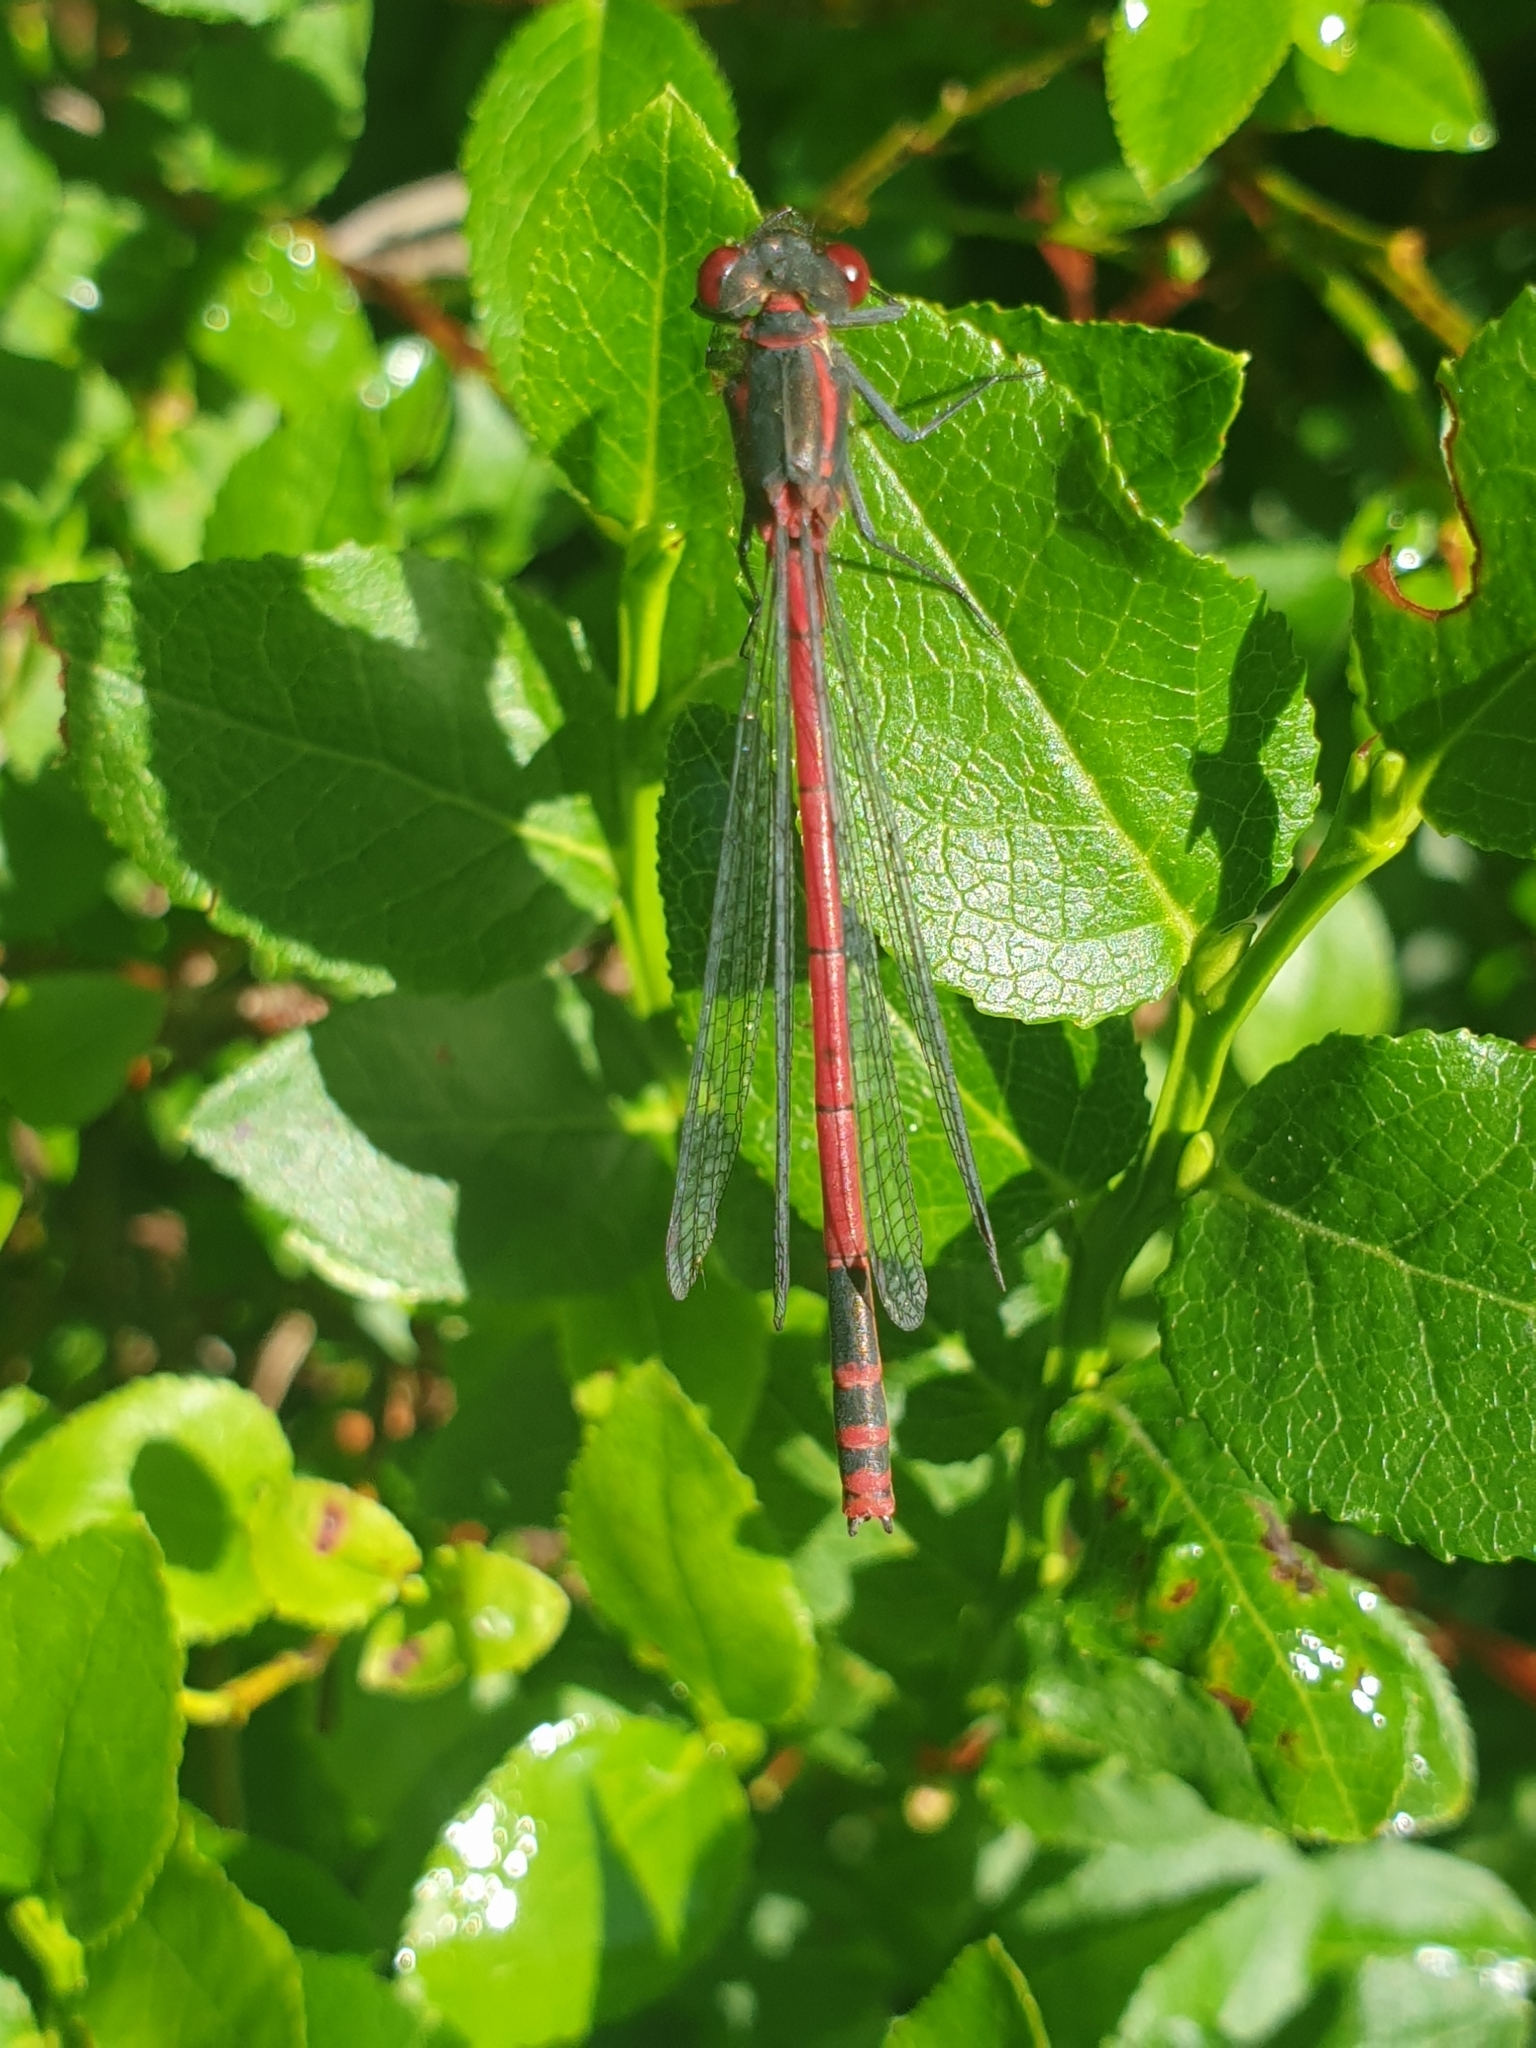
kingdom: Animalia
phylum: Arthropoda
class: Insecta
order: Odonata
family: Coenagrionidae
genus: Pyrrhosoma
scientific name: Pyrrhosoma nymphula
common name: Large red damsel
